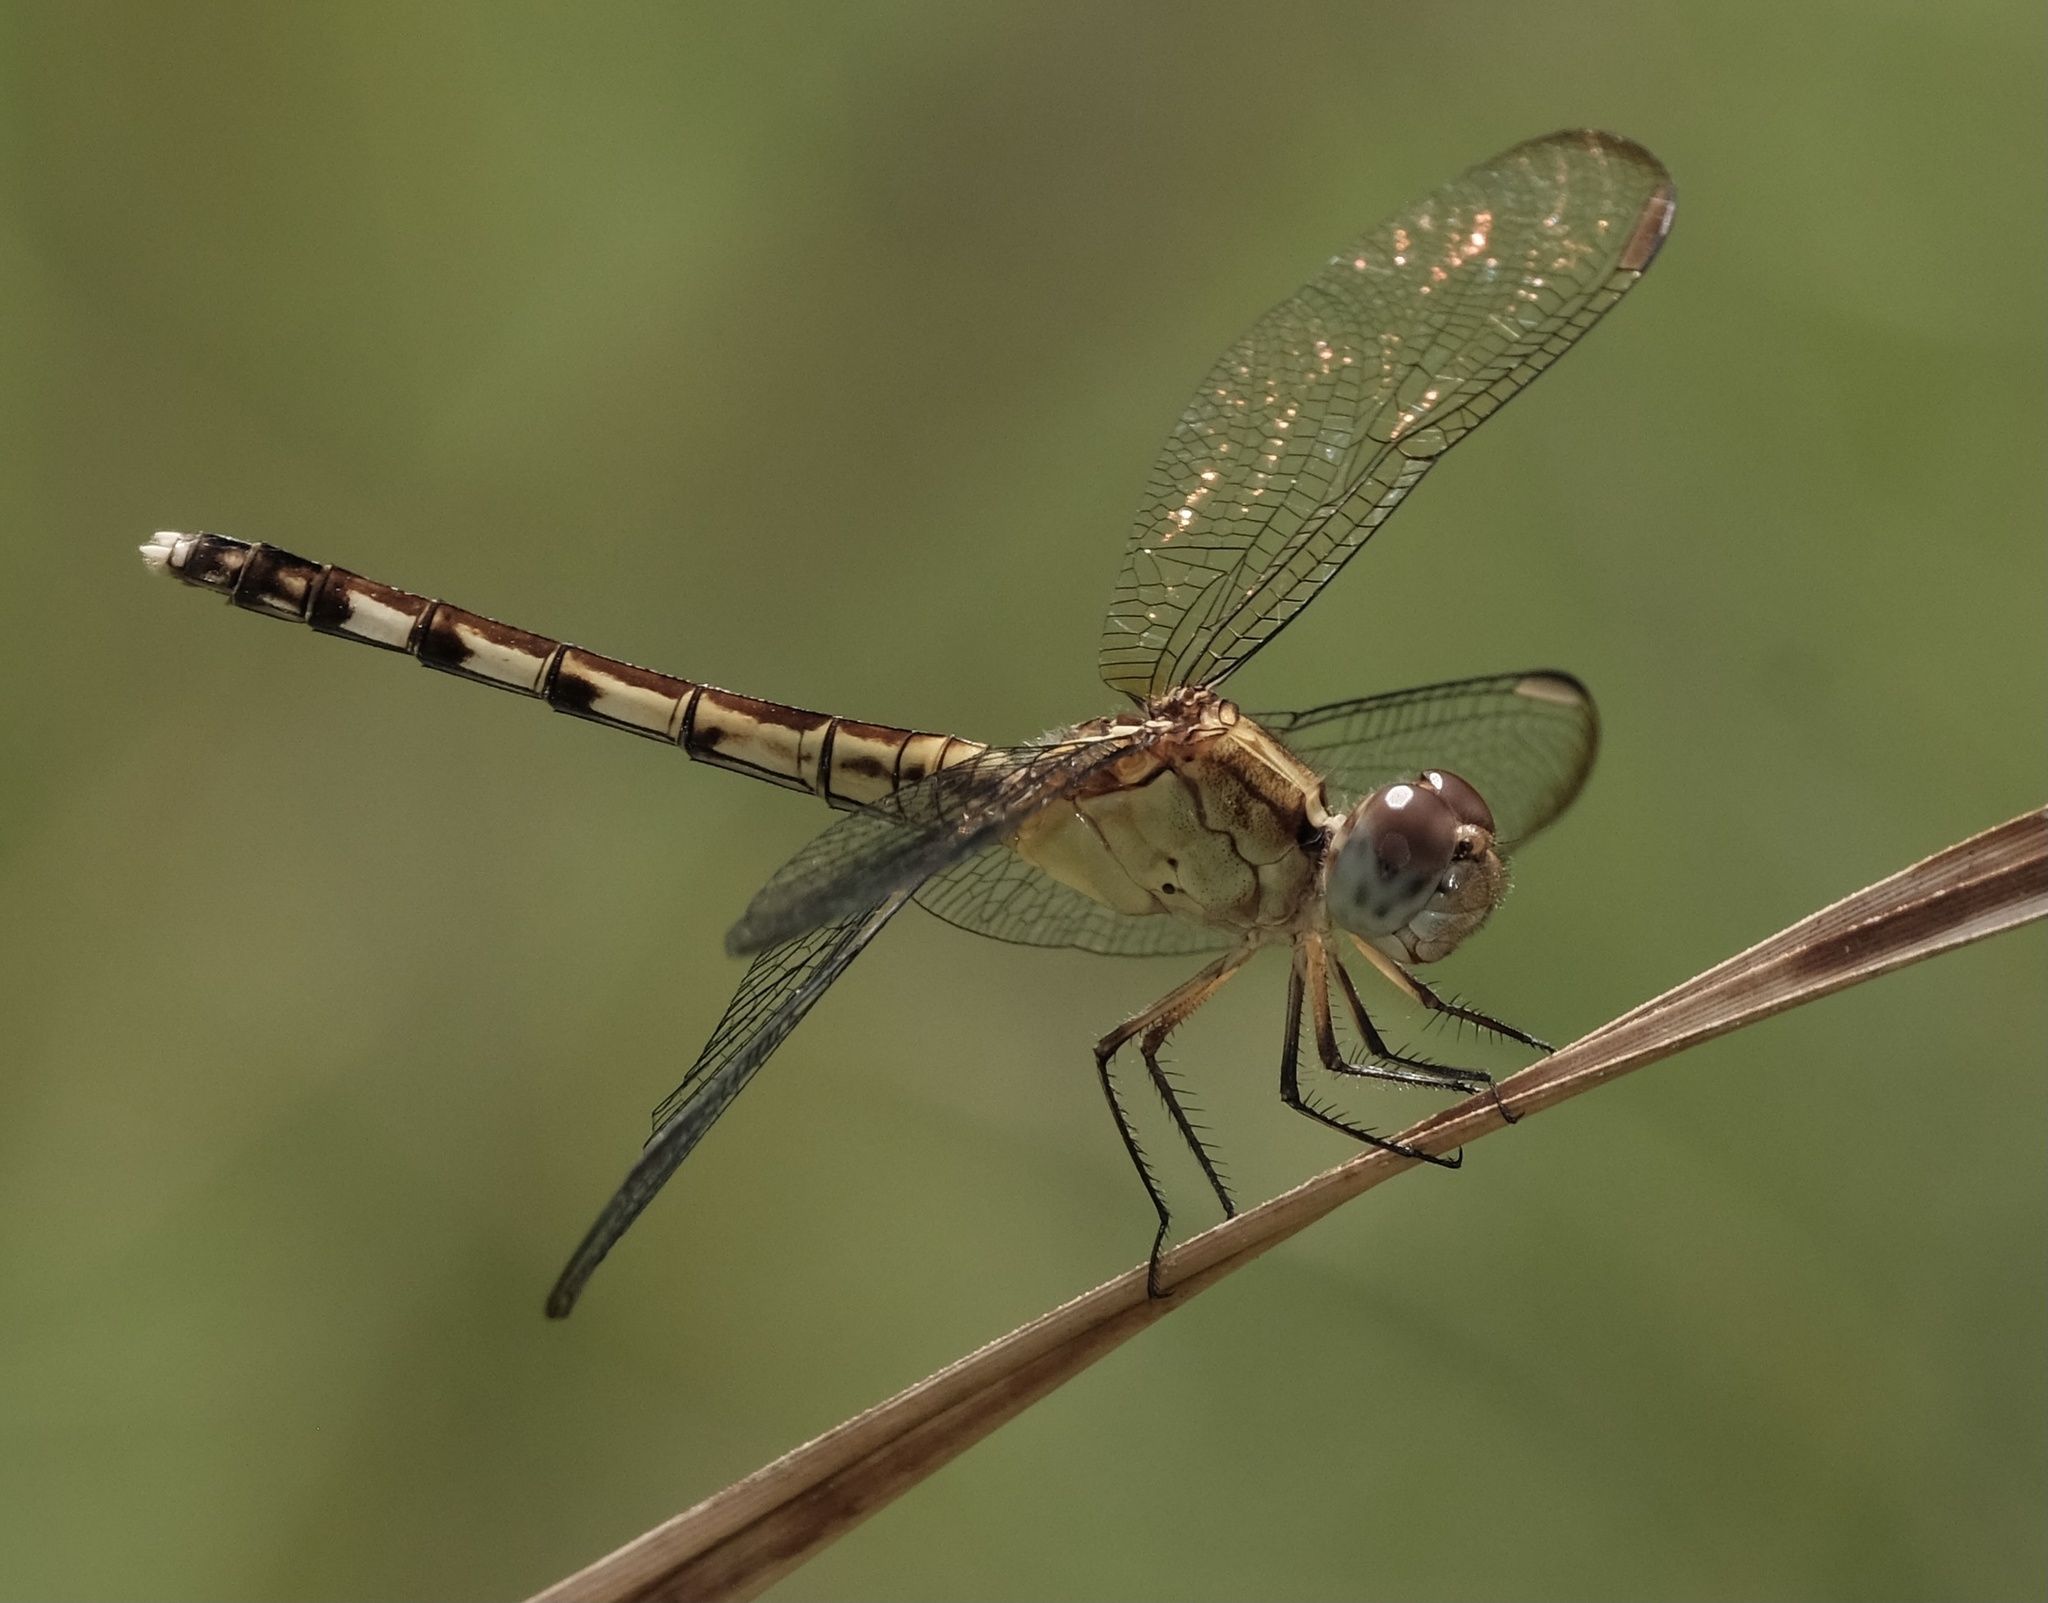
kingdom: Animalia
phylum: Arthropoda
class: Insecta
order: Odonata
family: Libellulidae
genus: Erythrodiplax
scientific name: Erythrodiplax umbrata
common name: Band-winged dragonlet
